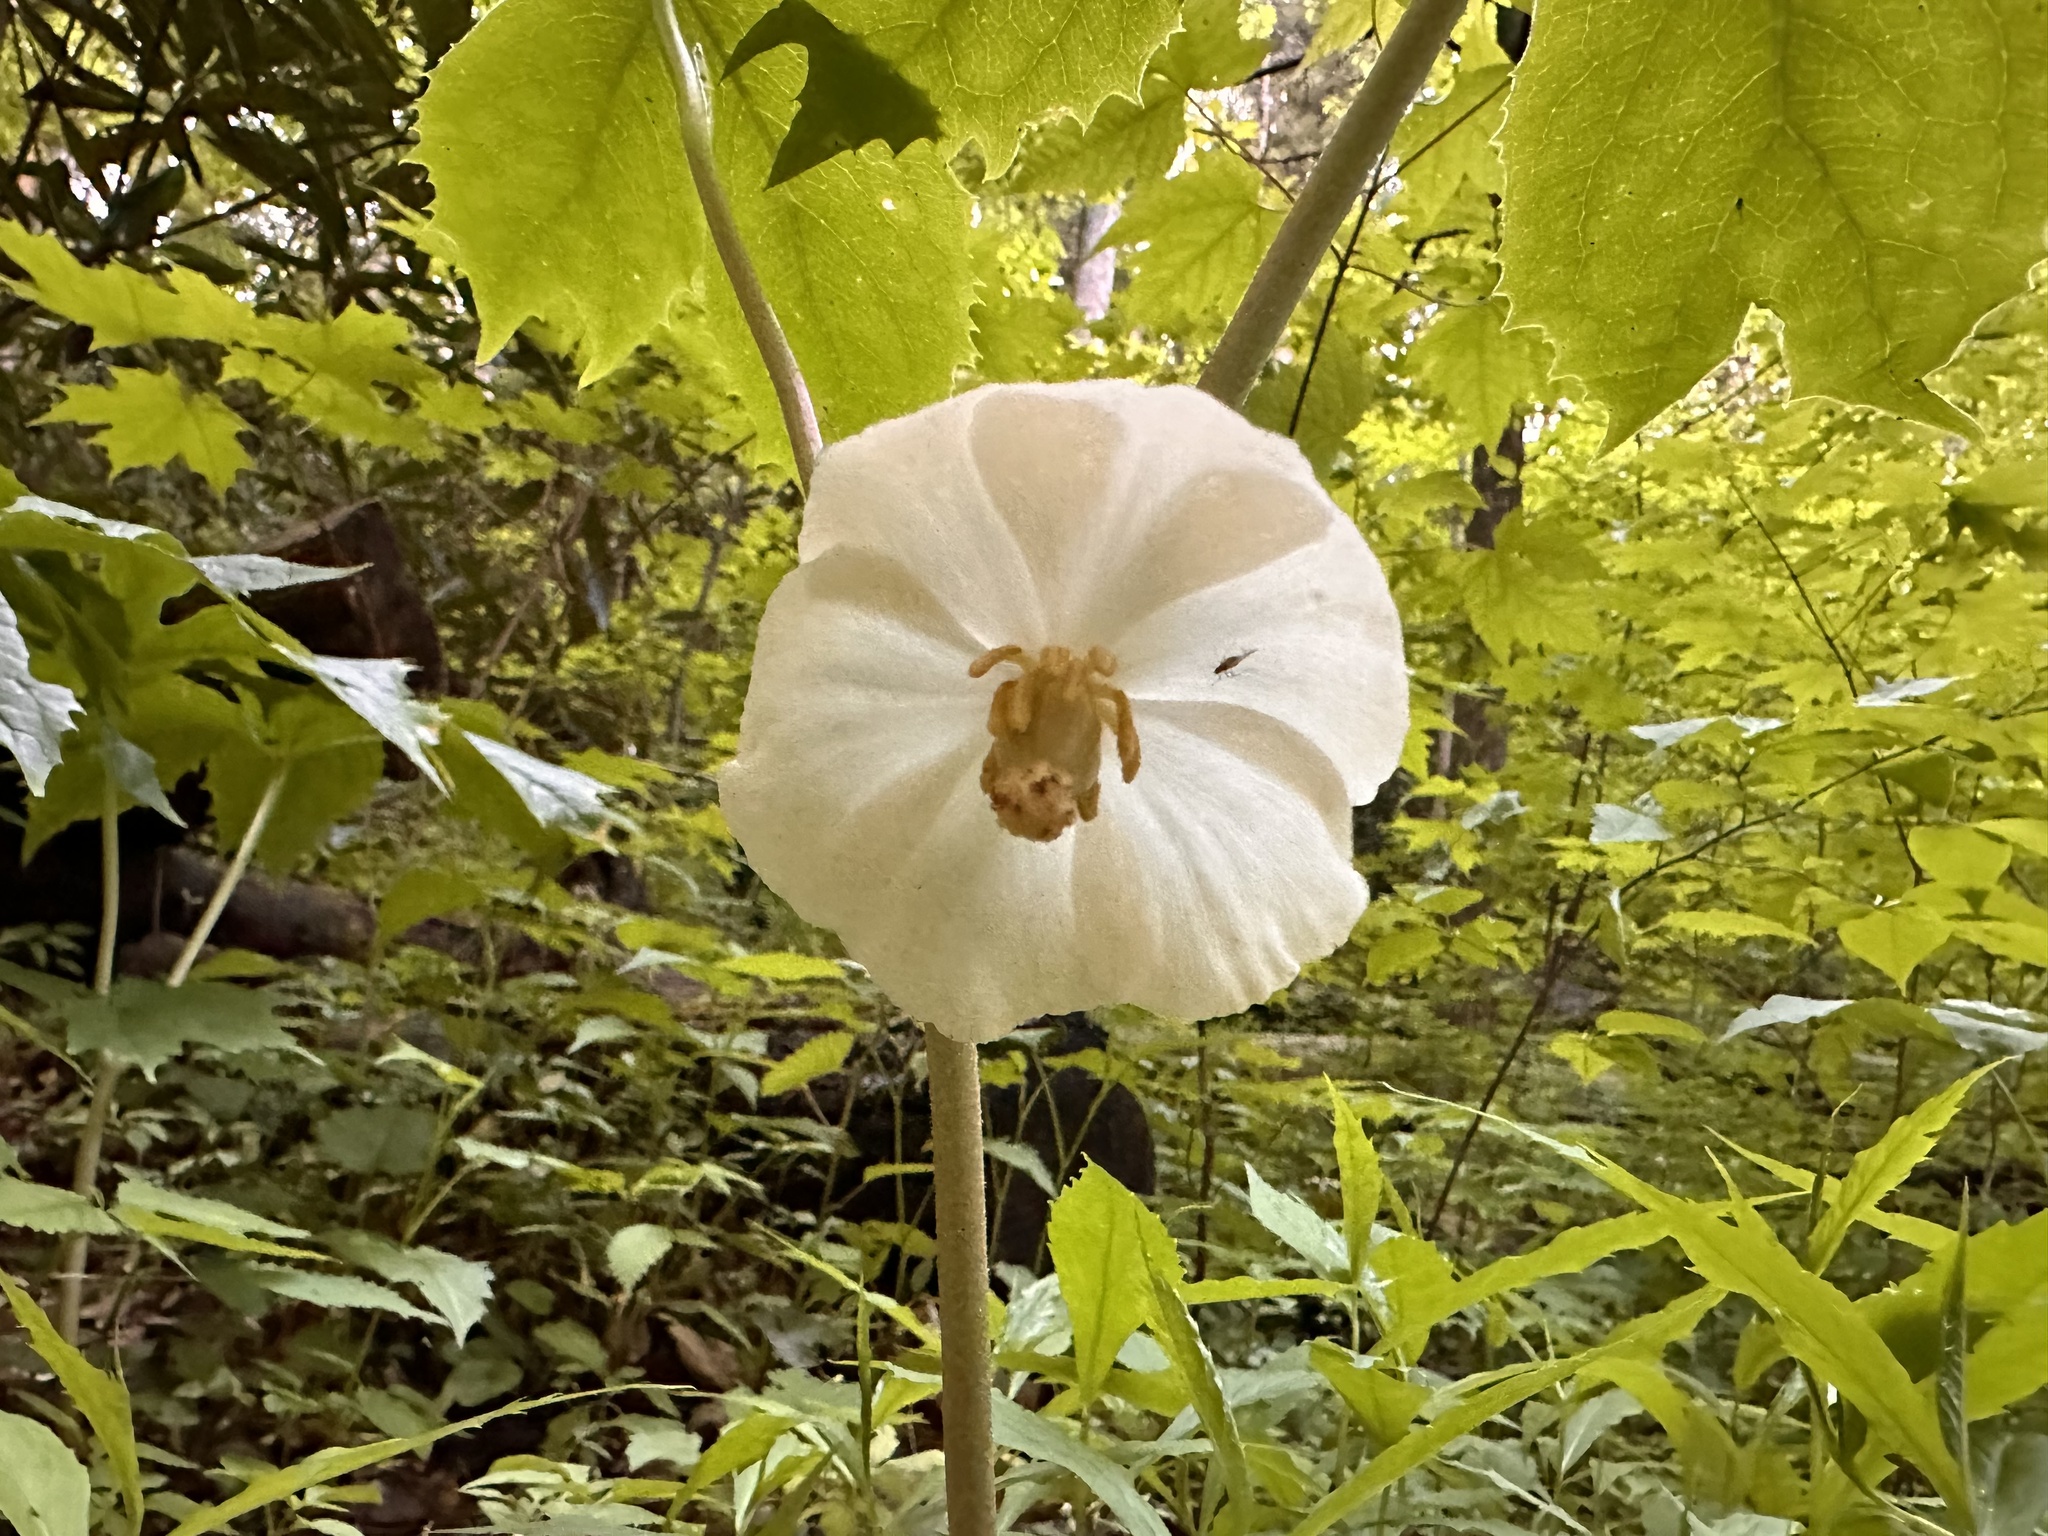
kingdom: Plantae
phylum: Tracheophyta
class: Magnoliopsida
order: Ranunculales
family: Berberidaceae
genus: Podophyllum
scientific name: Podophyllum peltatum
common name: Wild mandrake
